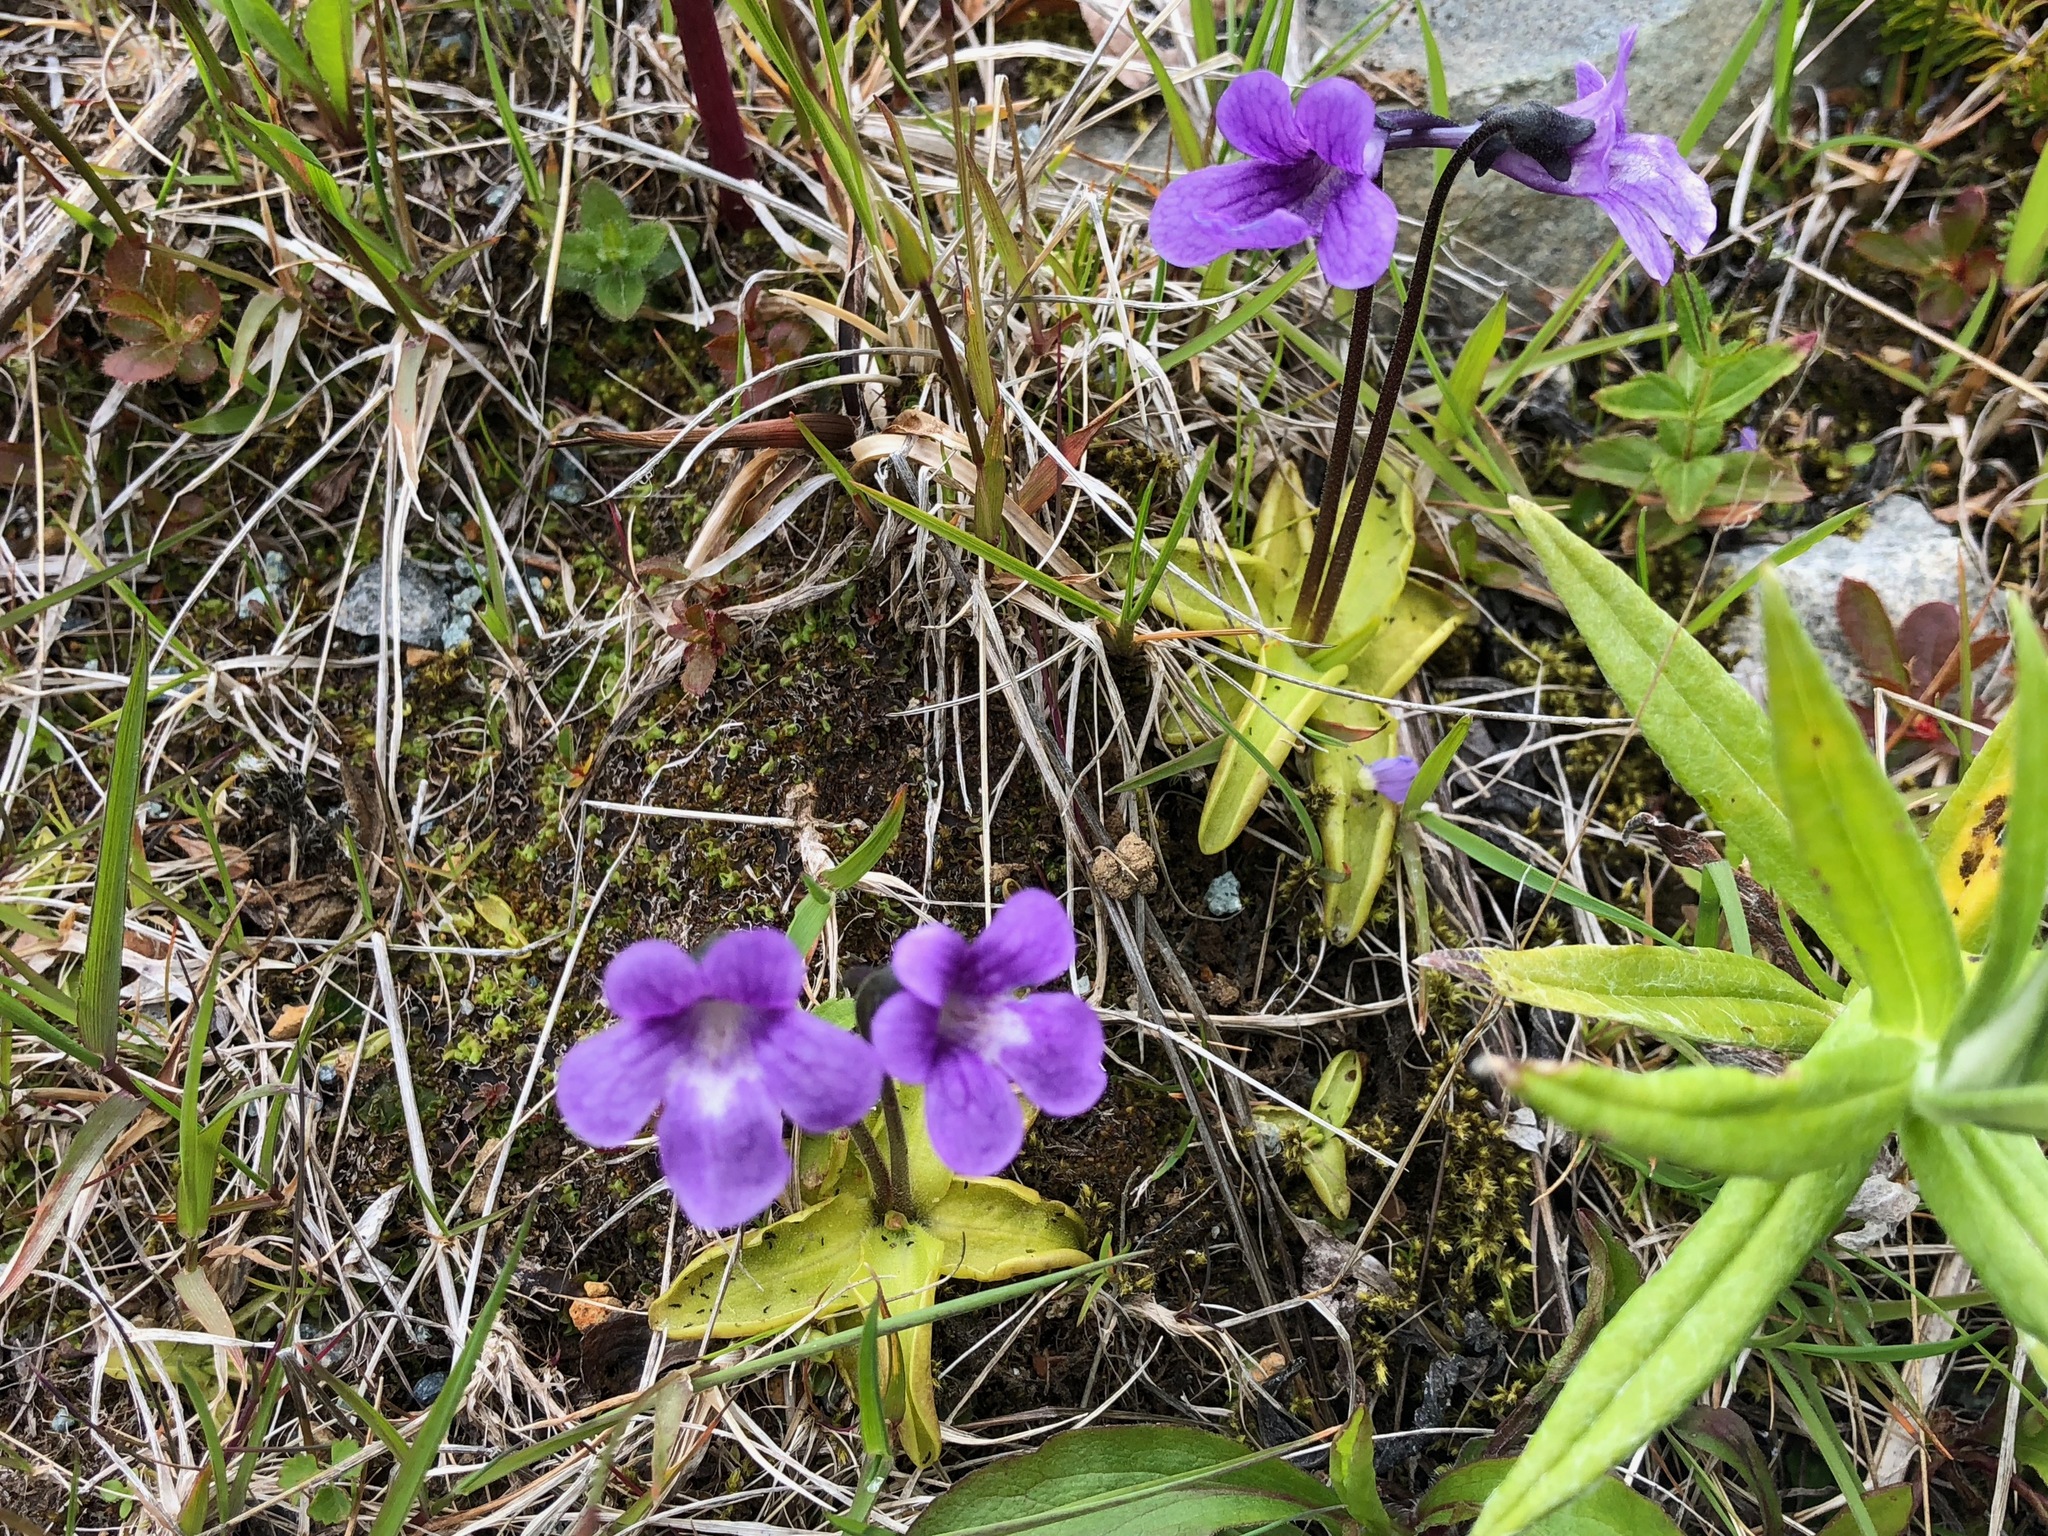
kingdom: Plantae
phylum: Tracheophyta
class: Magnoliopsida
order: Lamiales
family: Lentibulariaceae
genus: Pinguicula
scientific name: Pinguicula vulgaris
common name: Common butterwort
